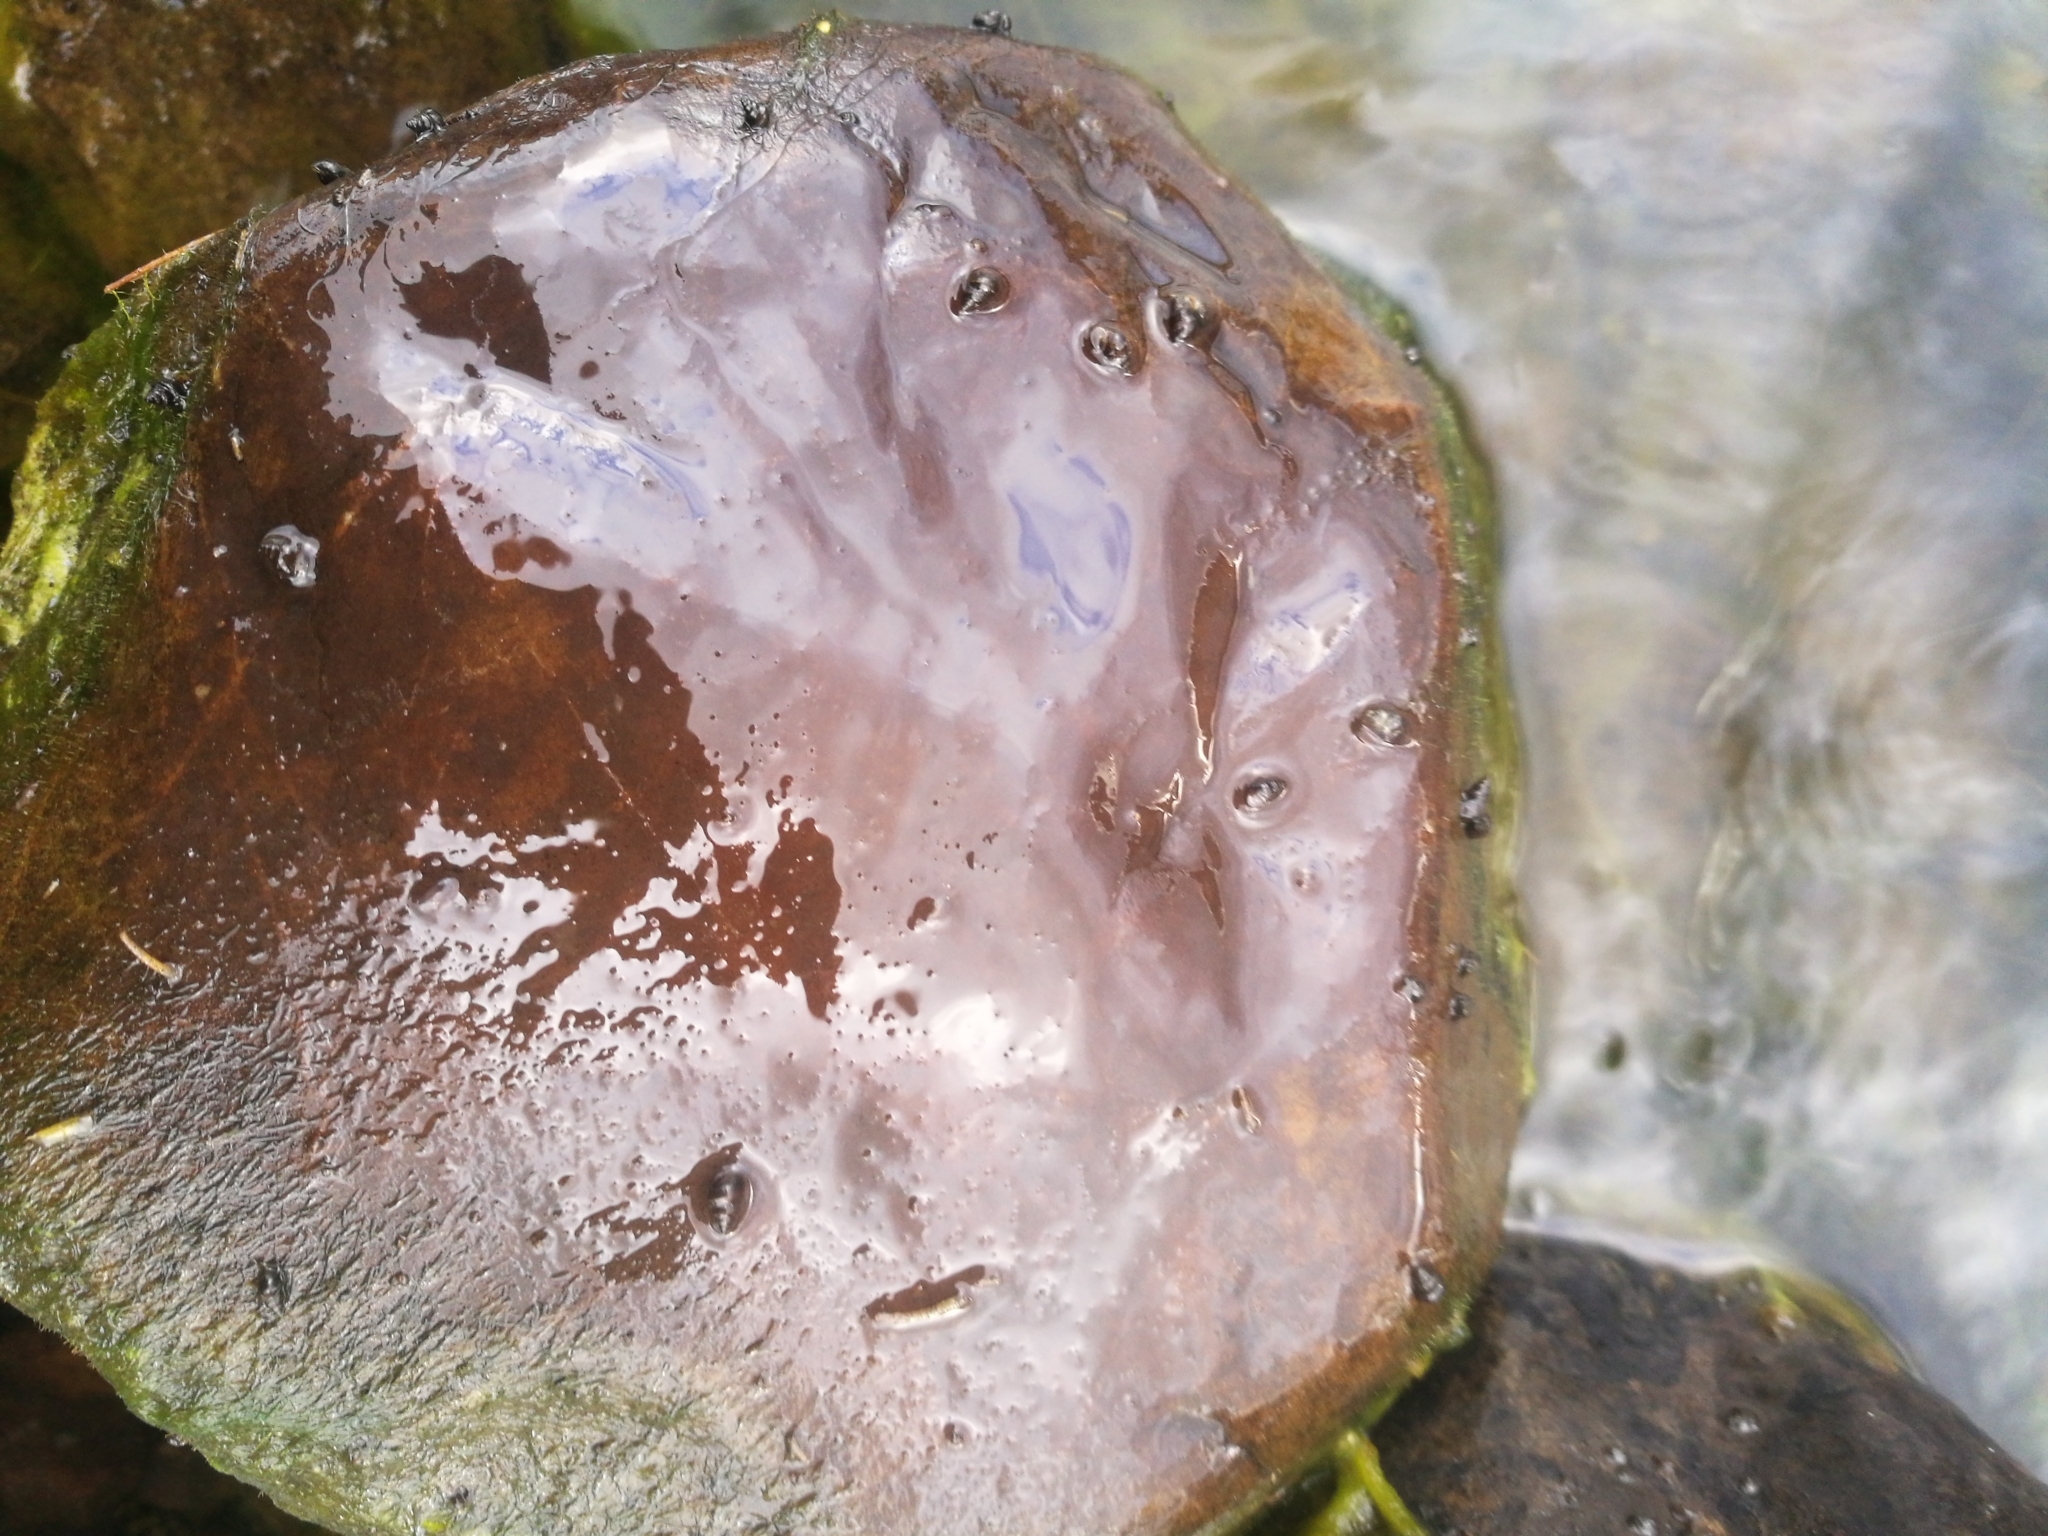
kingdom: Animalia
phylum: Mollusca
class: Gastropoda
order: Littorinimorpha
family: Tateidae
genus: Potamopyrgus
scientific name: Potamopyrgus antipodarum
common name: Jenkins' spire snail
